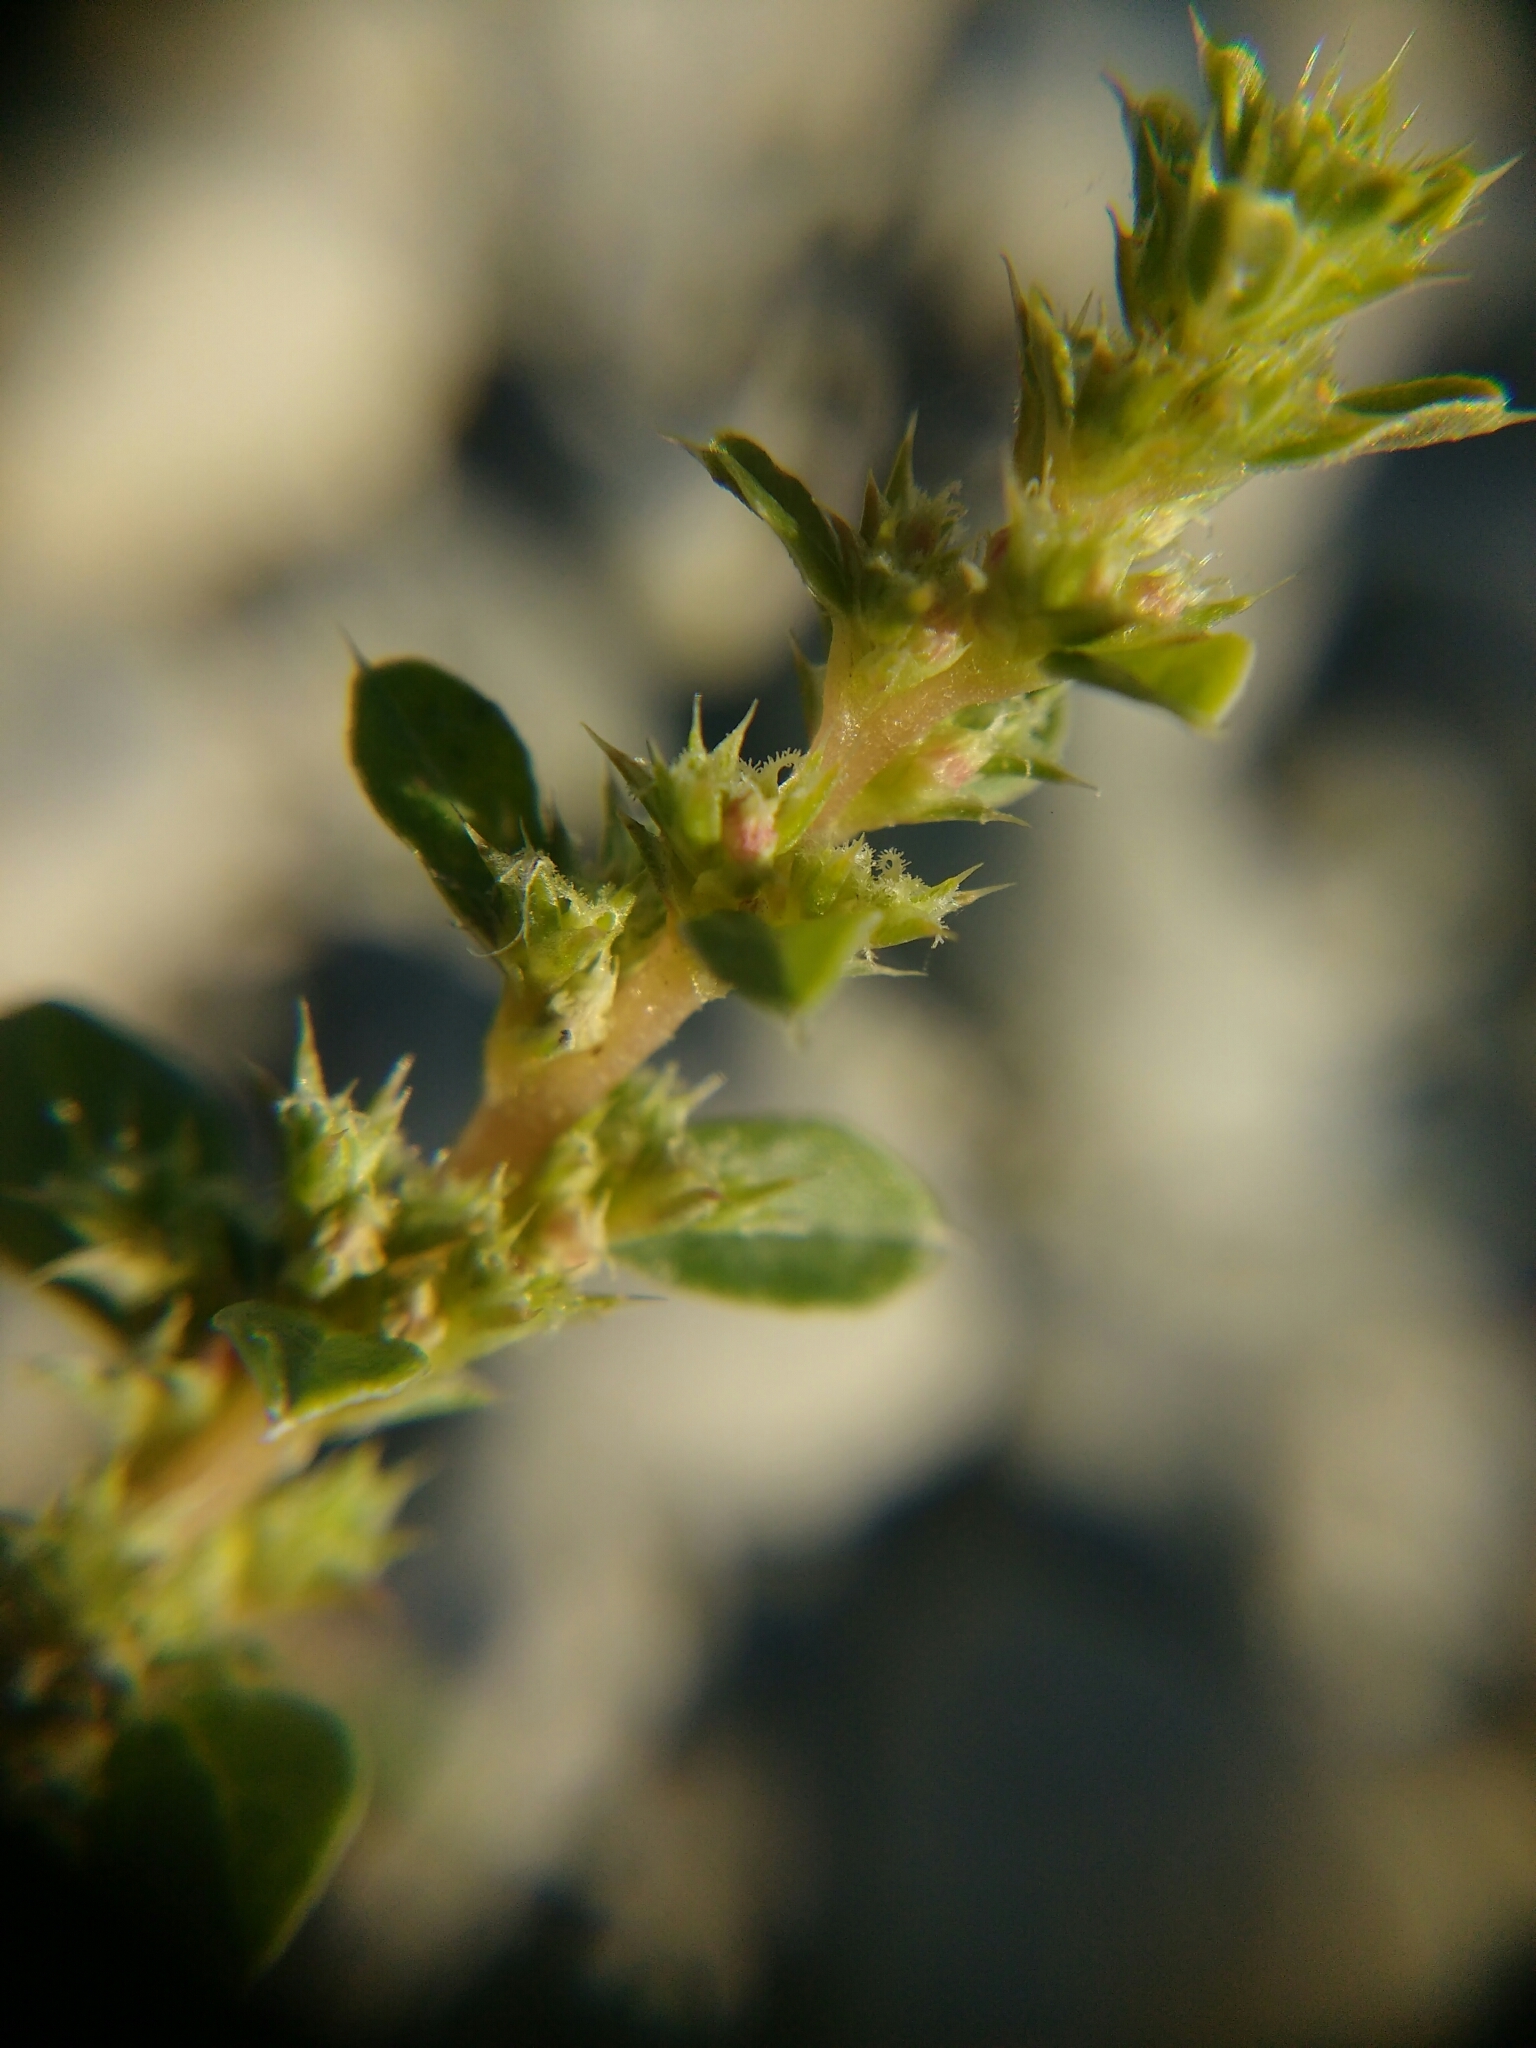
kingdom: Plantae
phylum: Tracheophyta
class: Magnoliopsida
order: Caryophyllales
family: Amaranthaceae
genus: Amaranthus
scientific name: Amaranthus albus
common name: White pigweed
